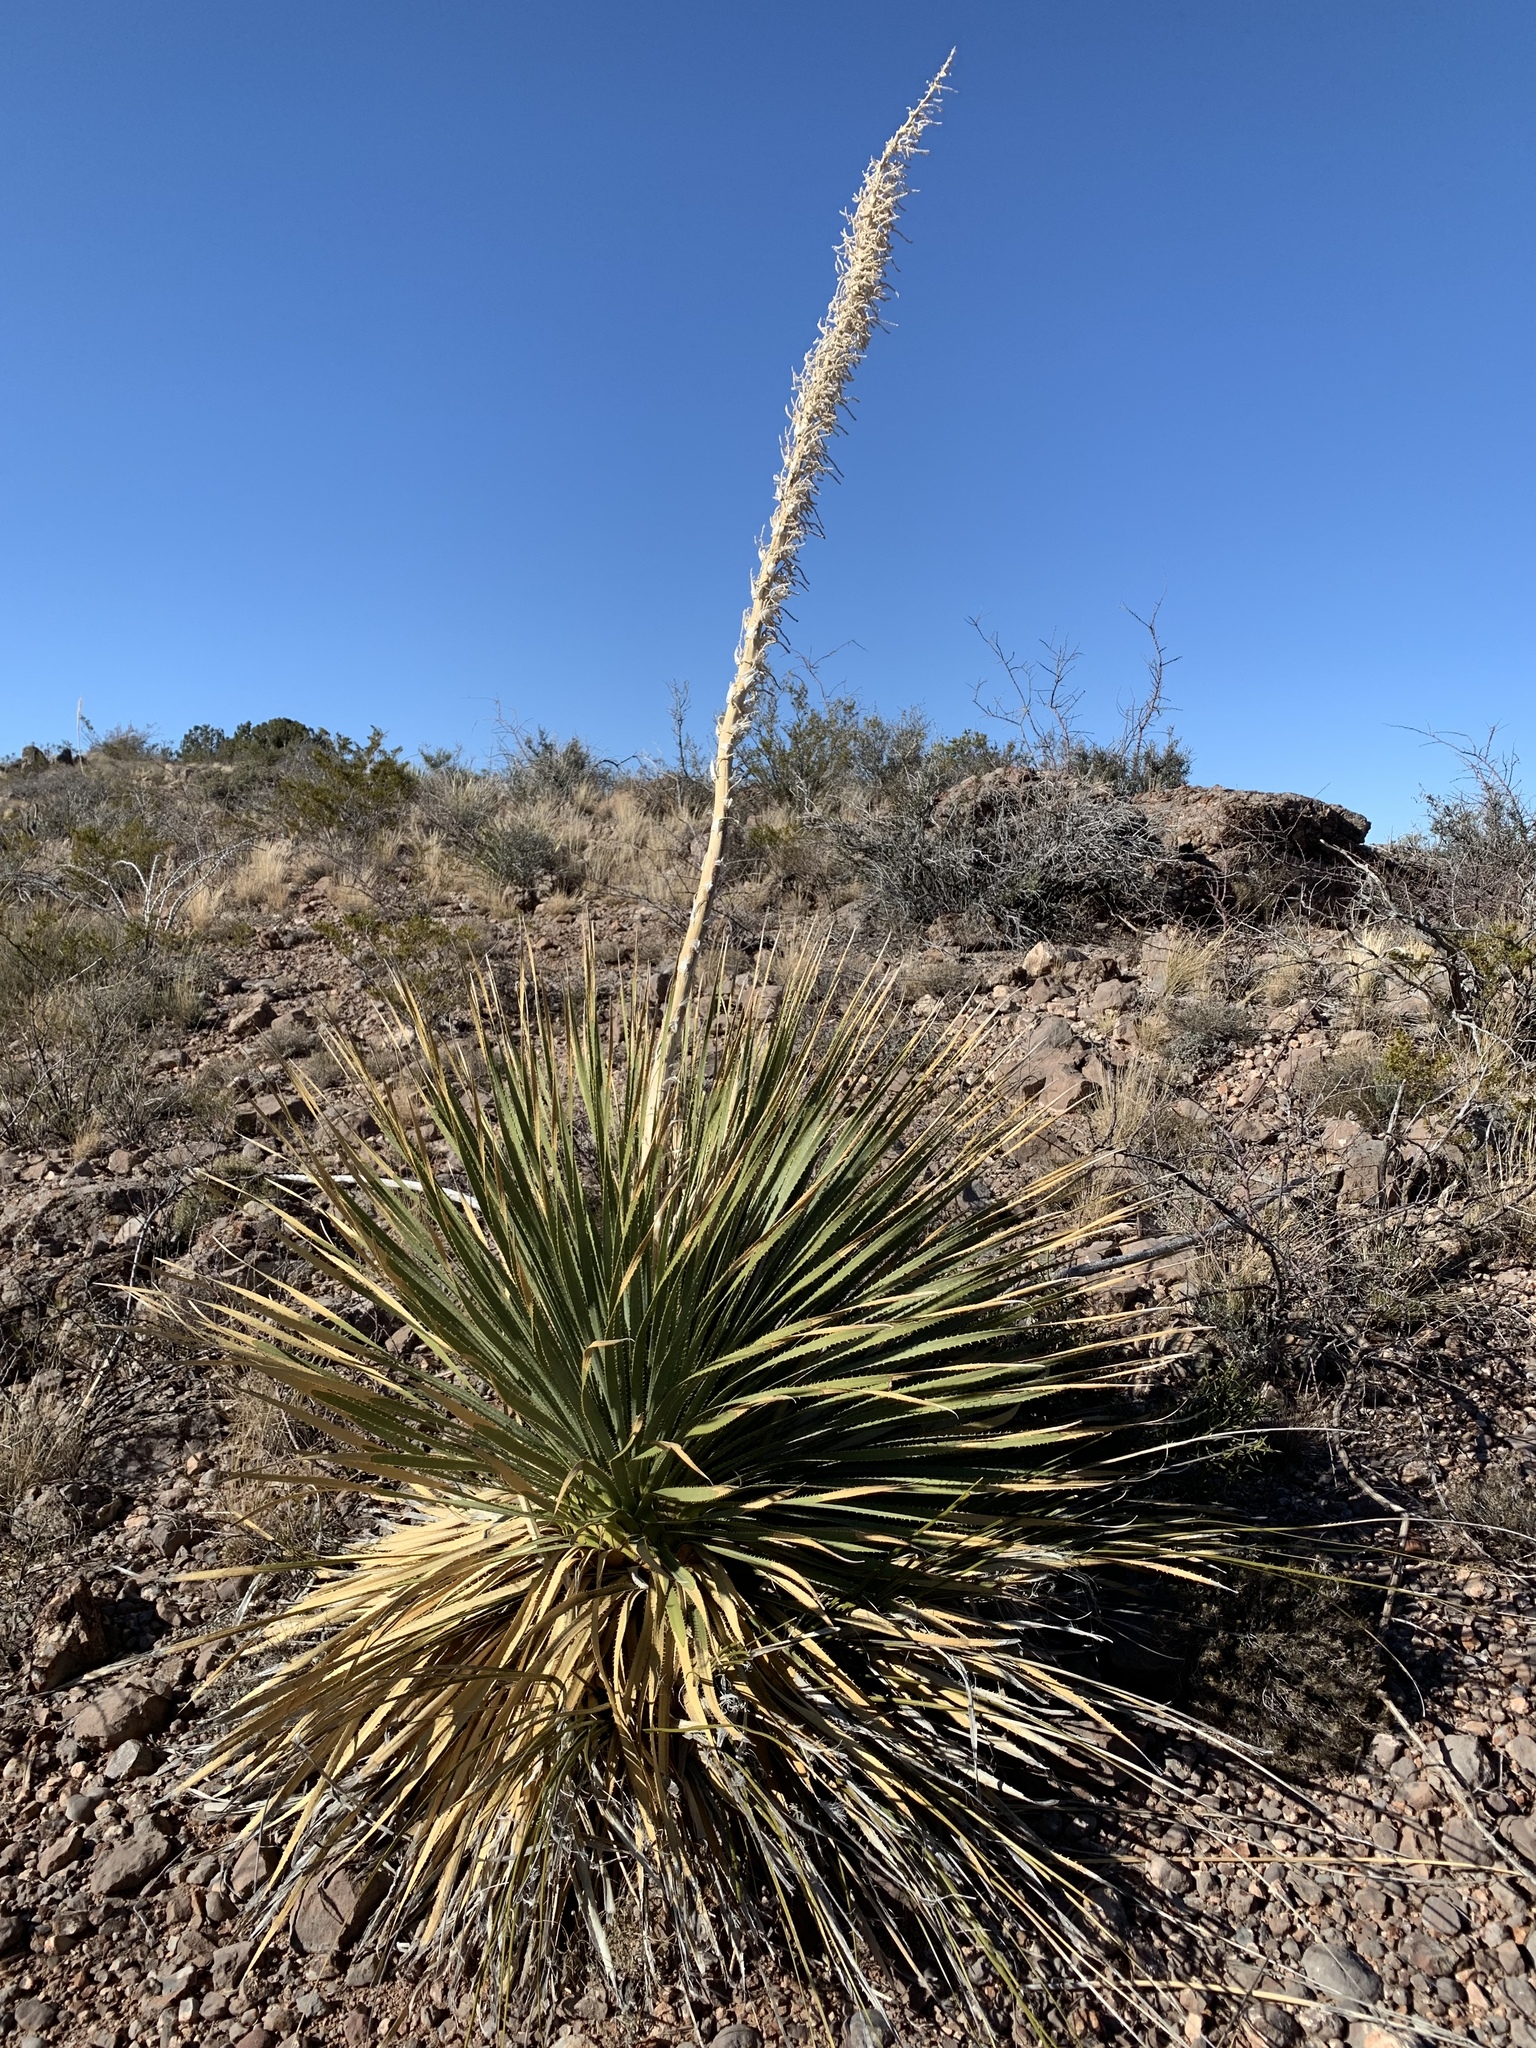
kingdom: Plantae
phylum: Tracheophyta
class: Liliopsida
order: Asparagales
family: Asparagaceae
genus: Dasylirion
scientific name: Dasylirion wheeleri
